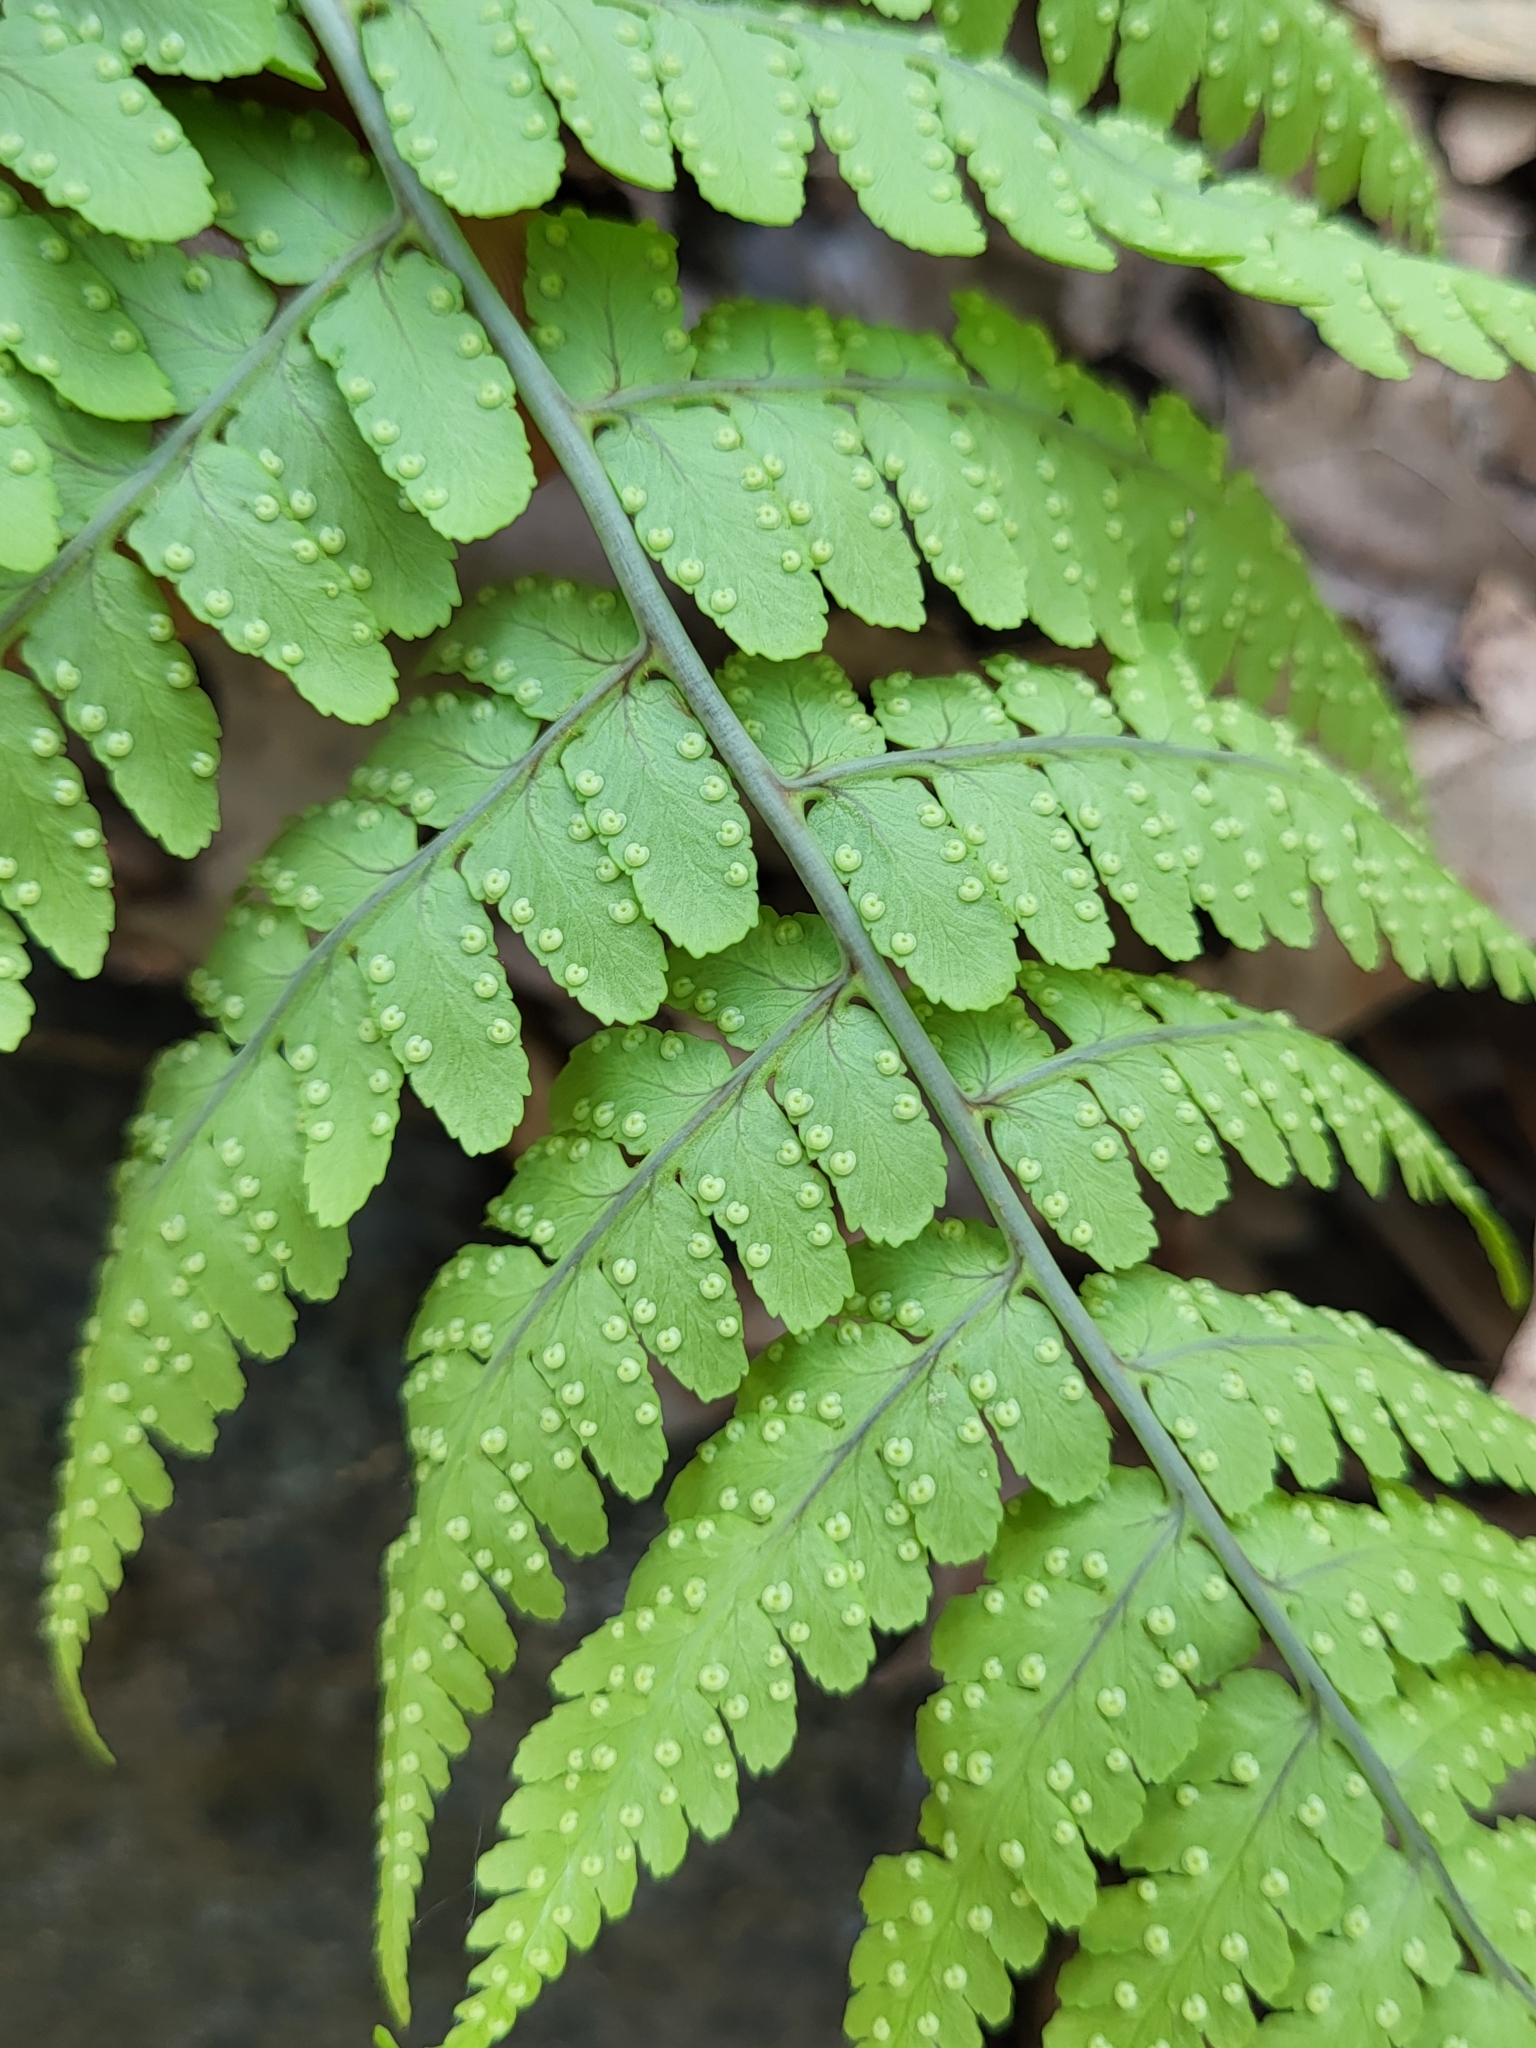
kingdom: Plantae
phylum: Tracheophyta
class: Polypodiopsida
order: Polypodiales
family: Dryopteridaceae
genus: Dryopteris
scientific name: Dryopteris marginalis
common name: Marginal wood fern
